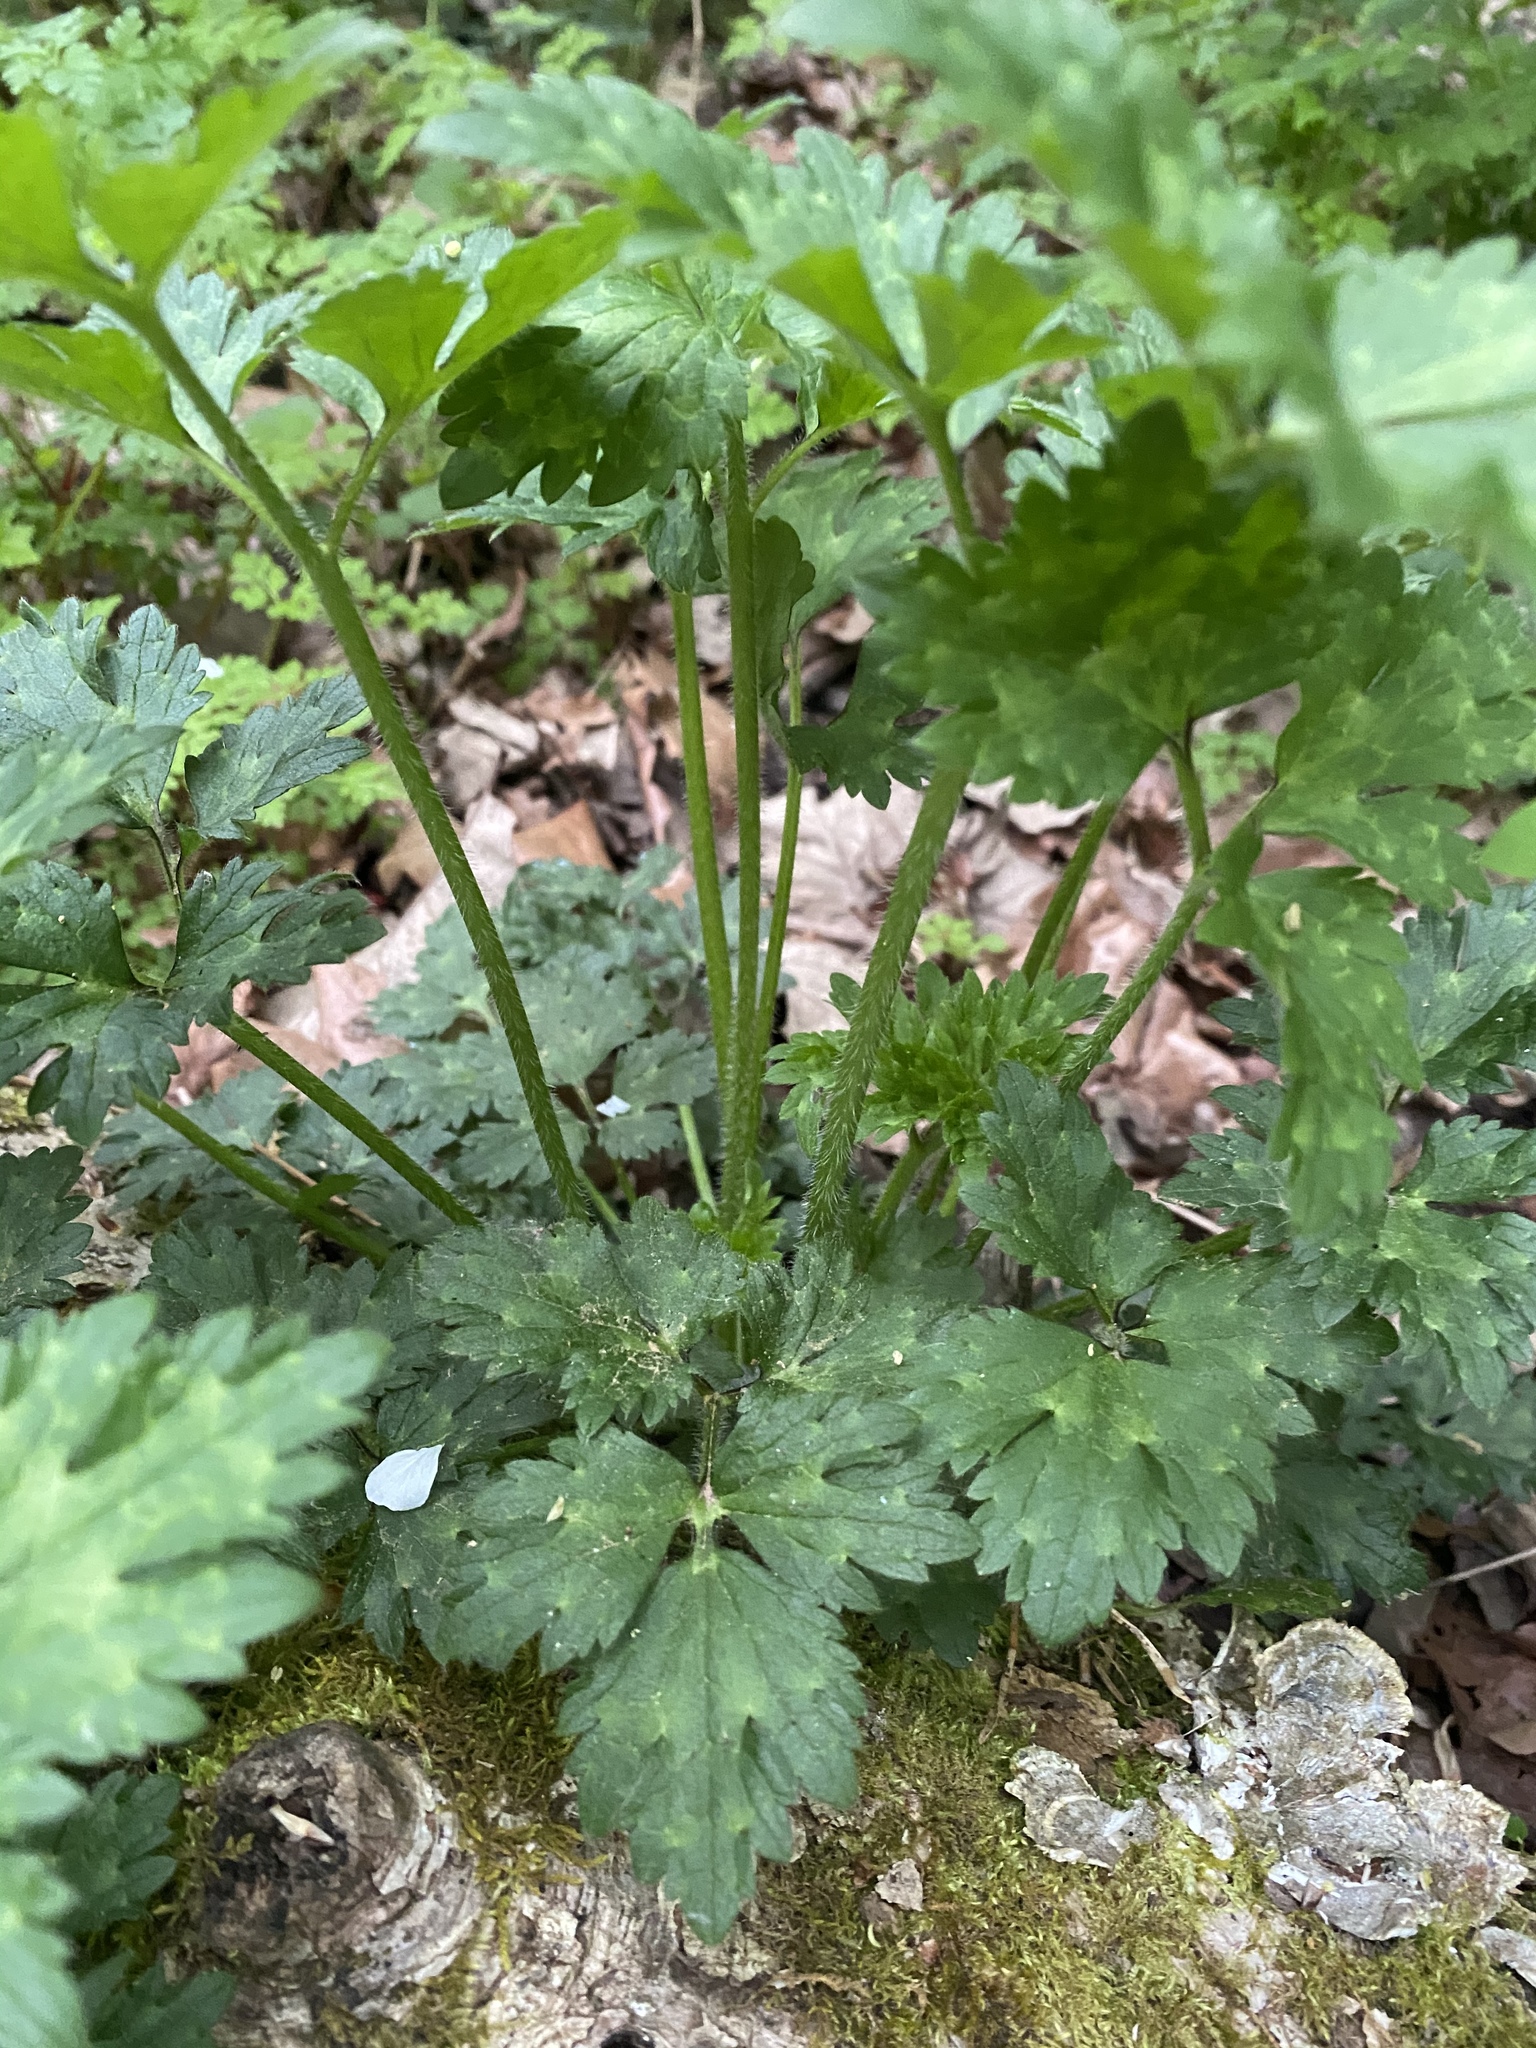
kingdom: Plantae
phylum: Tracheophyta
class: Magnoliopsida
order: Ranunculales
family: Ranunculaceae
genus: Ranunculus
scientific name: Ranunculus repens
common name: Creeping buttercup
